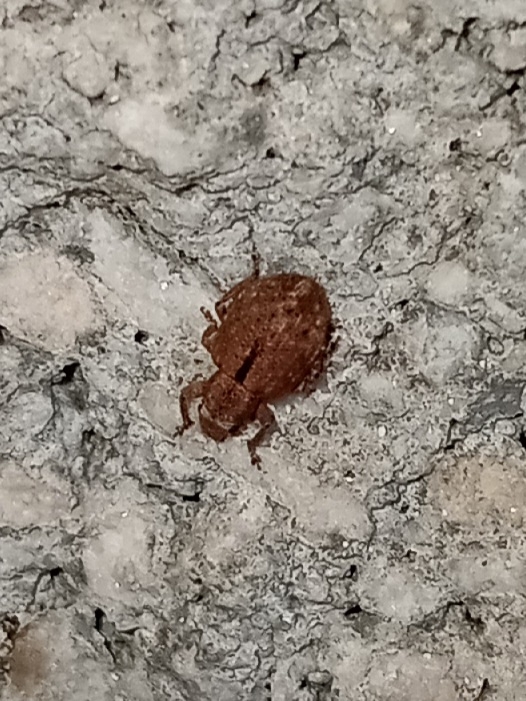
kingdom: Animalia
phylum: Arthropoda
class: Insecta
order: Coleoptera
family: Curculionidae
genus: Strophosoma
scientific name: Strophosoma melanogrammum
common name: Weevil
